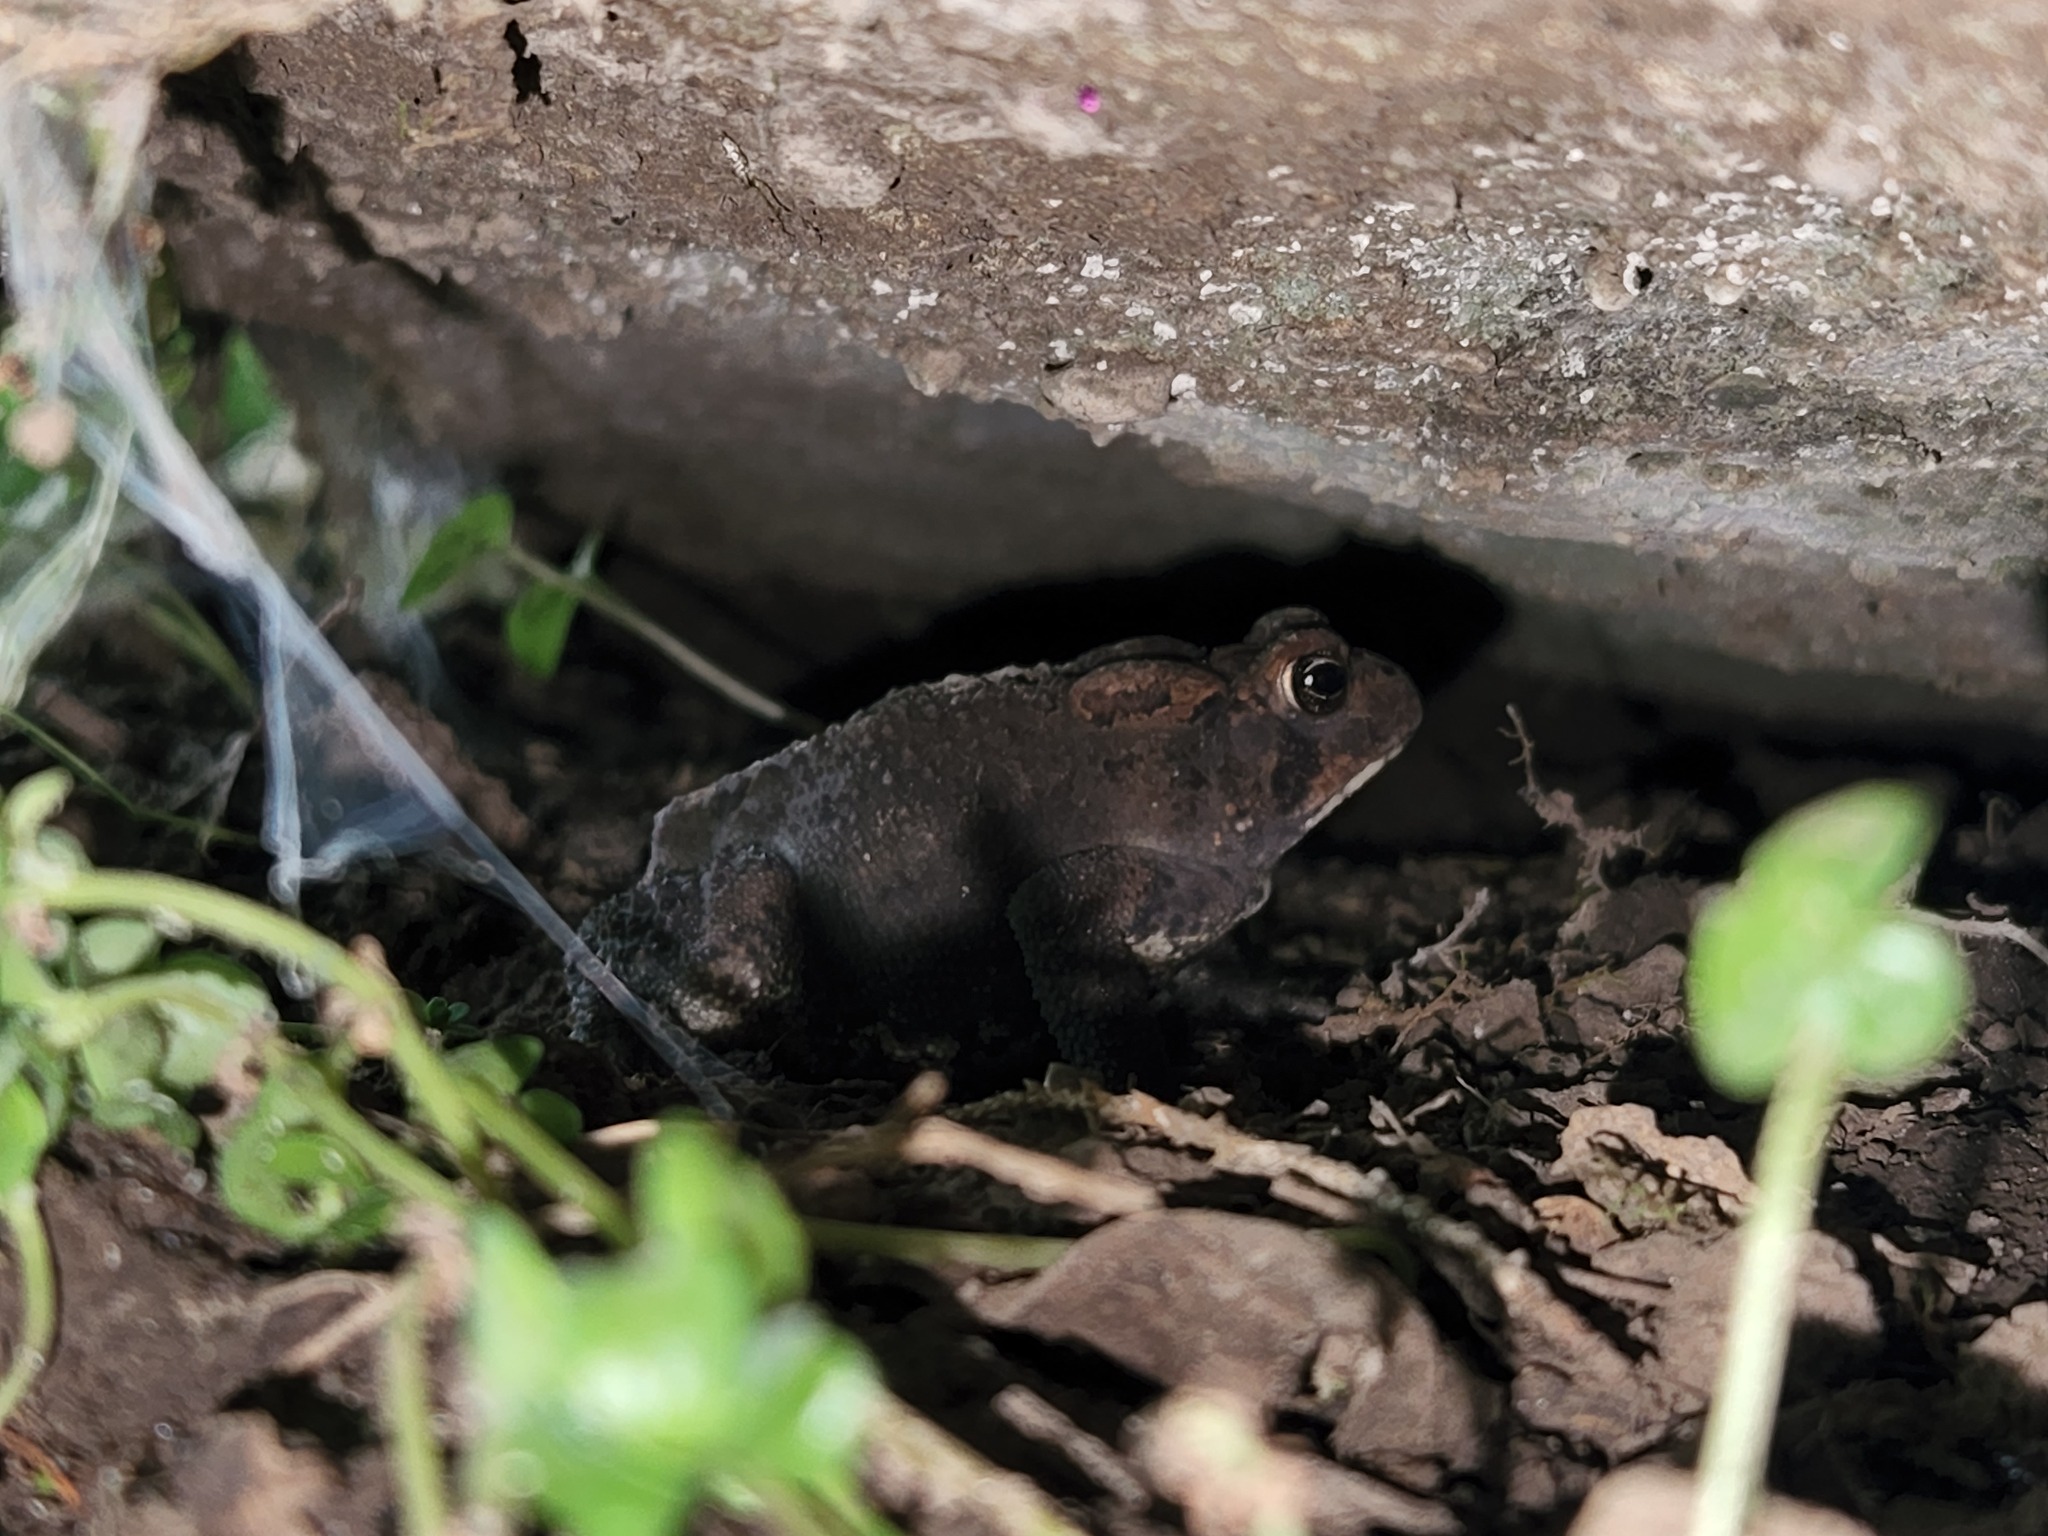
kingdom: Animalia
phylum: Chordata
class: Amphibia
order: Anura
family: Bufonidae
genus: Anaxyrus
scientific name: Anaxyrus americanus
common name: American toad
